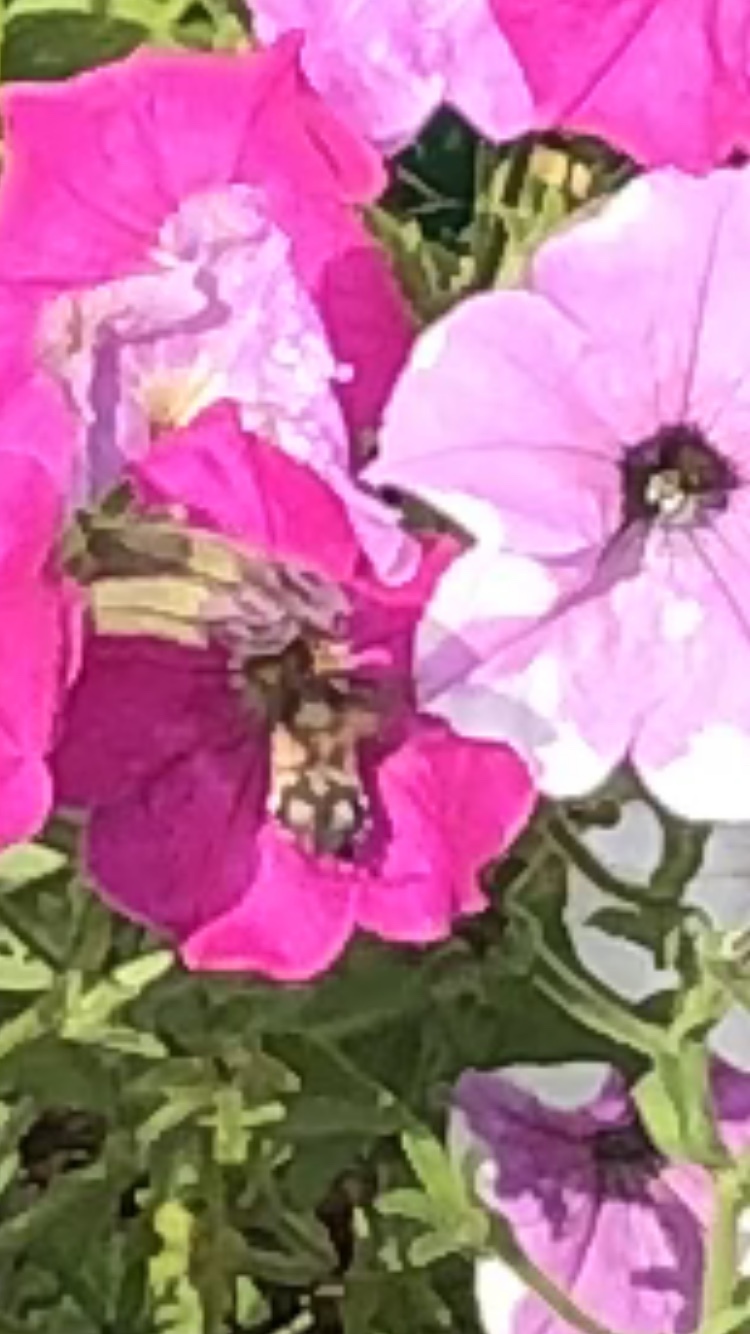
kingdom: Animalia
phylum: Arthropoda
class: Insecta
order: Lepidoptera
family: Sphingidae
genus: Macroglossum
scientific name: Macroglossum stellatarum
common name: Humming-bird hawk-moth
